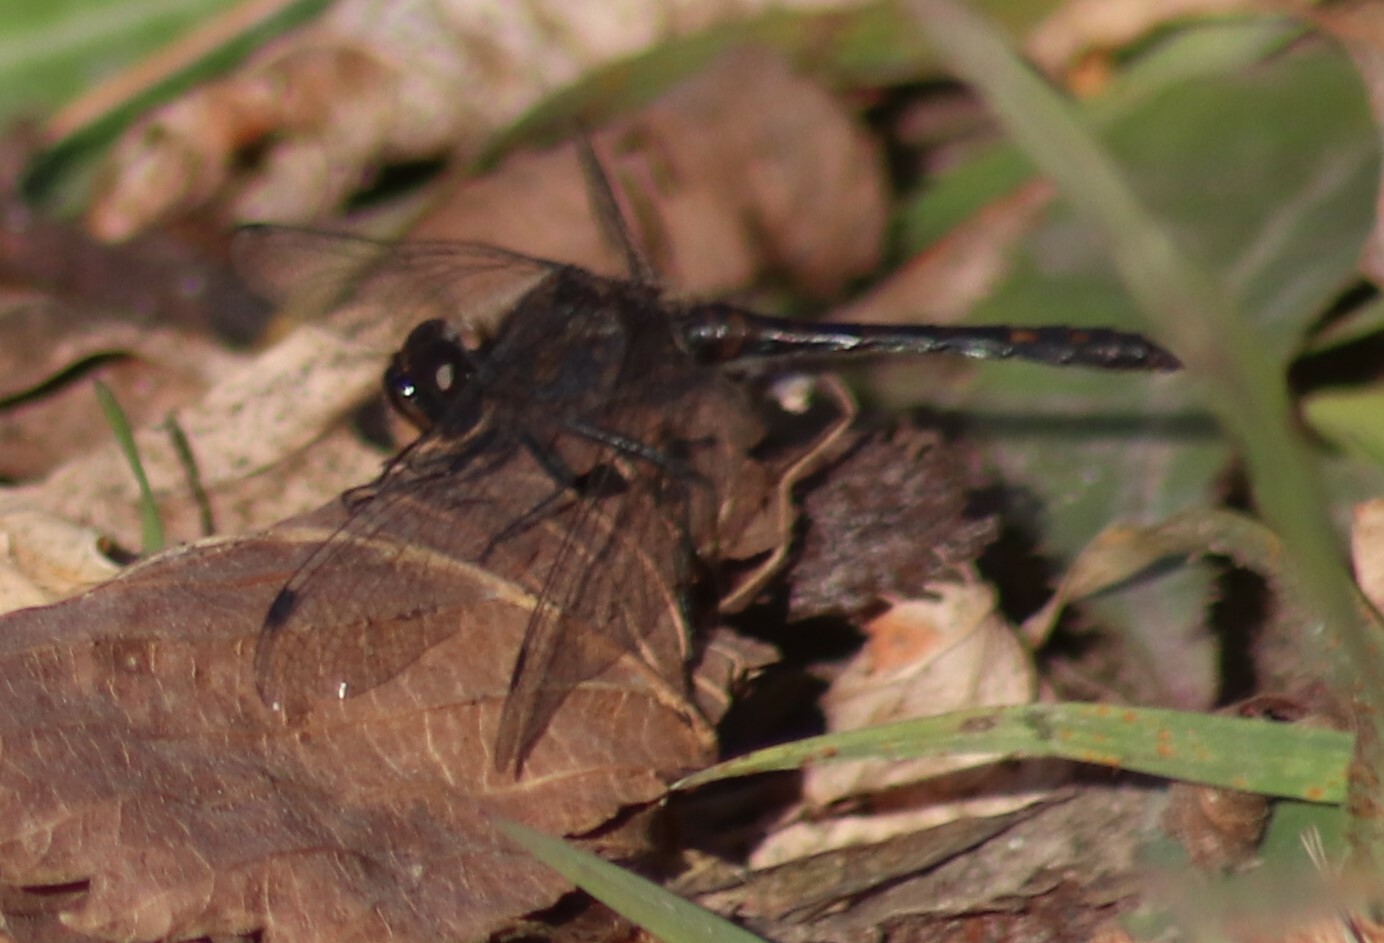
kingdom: Animalia
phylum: Arthropoda
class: Insecta
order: Odonata
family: Libellulidae
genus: Sympetrum
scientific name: Sympetrum danae
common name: Black darter
